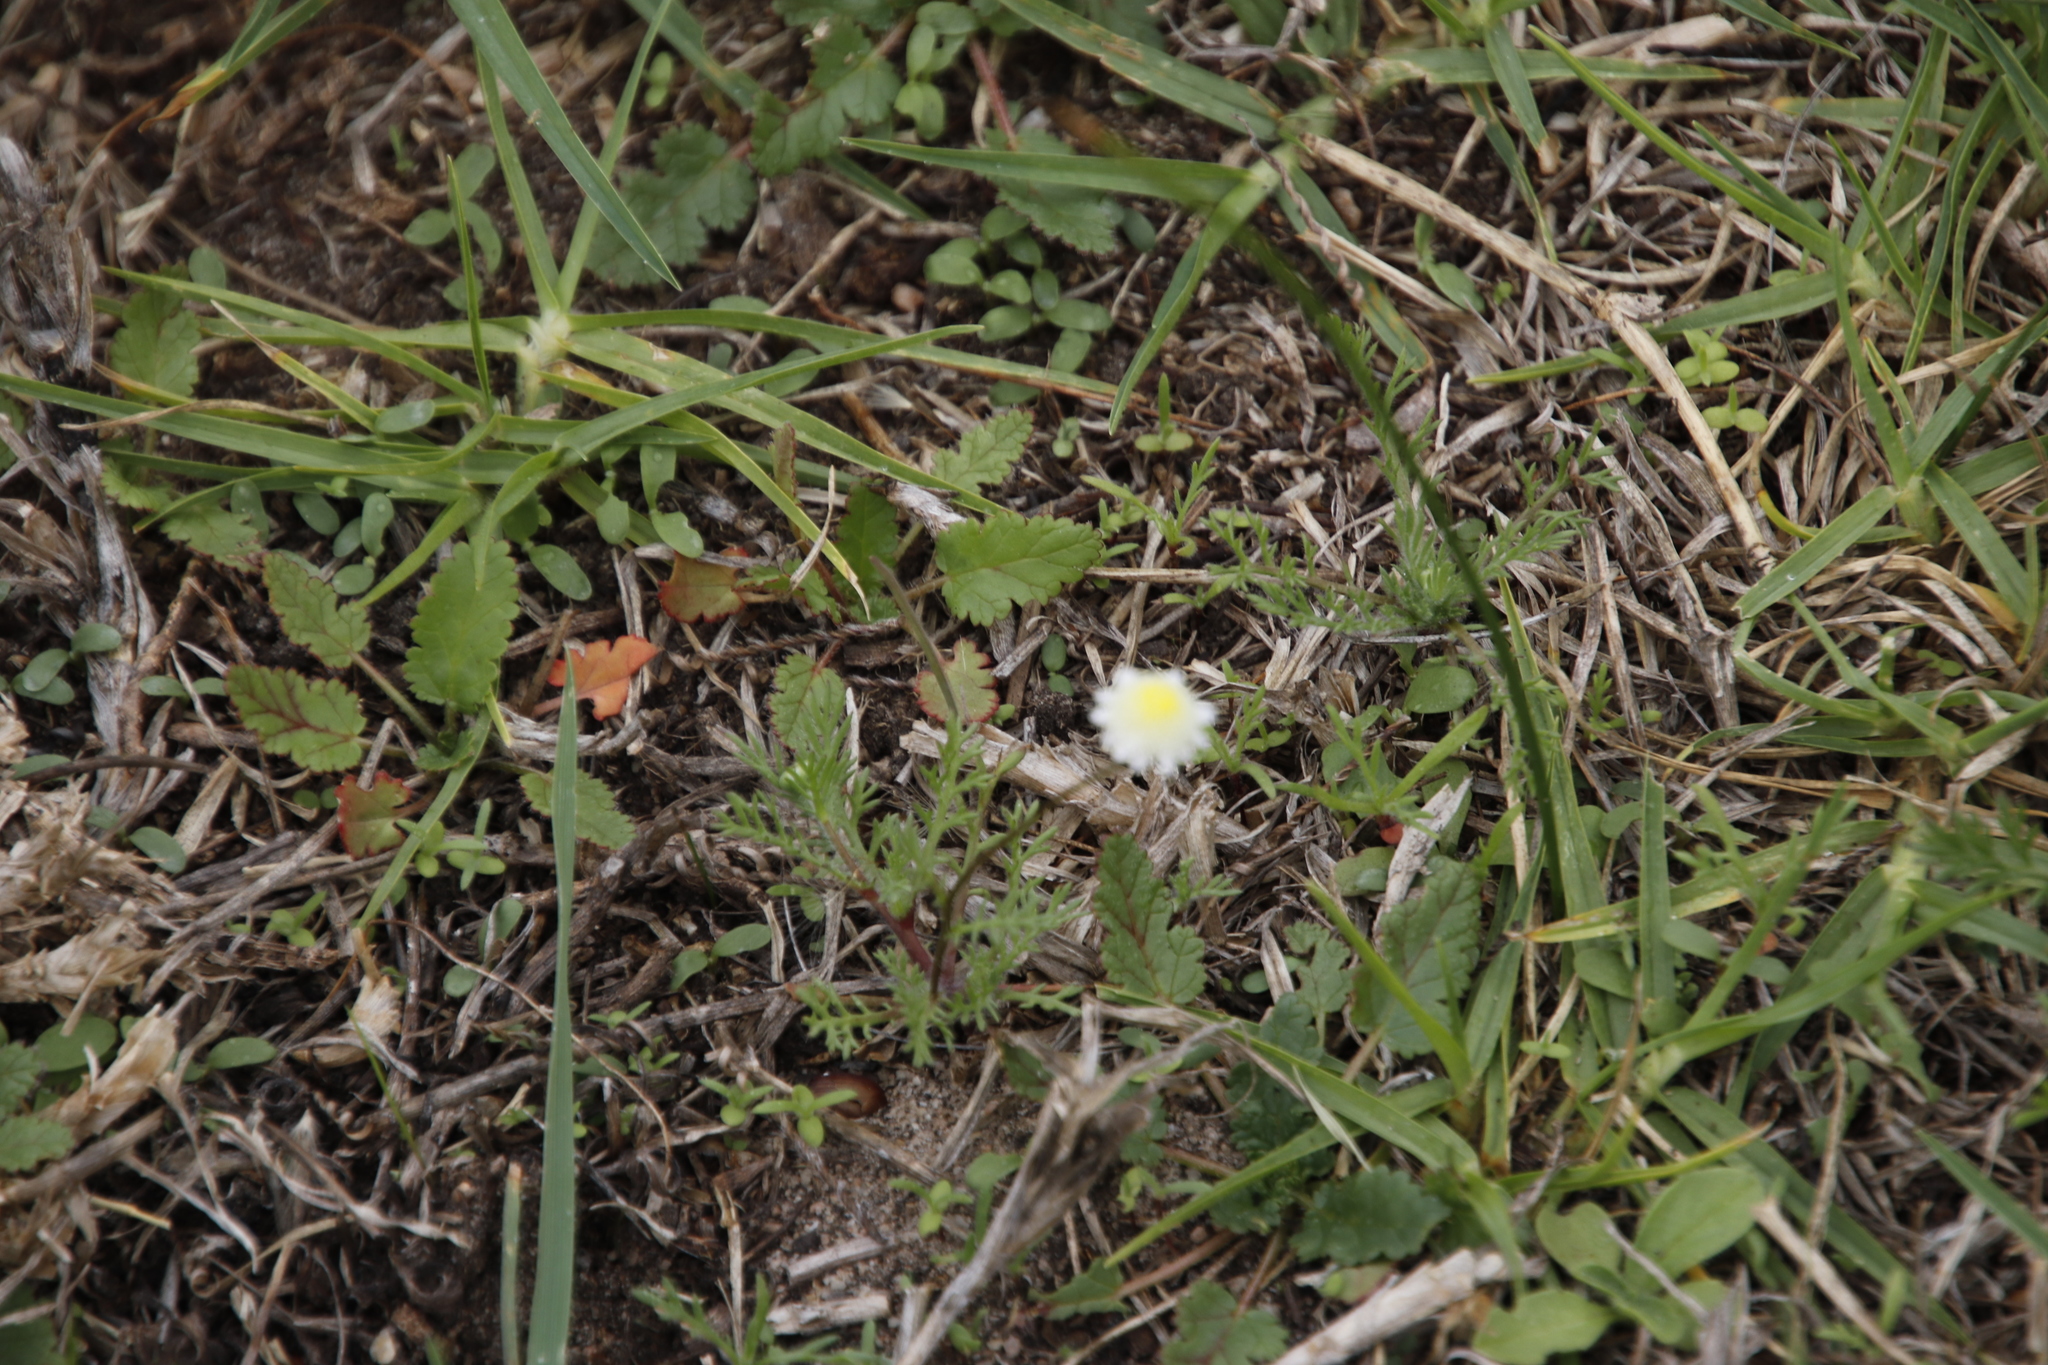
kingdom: Plantae
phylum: Tracheophyta
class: Magnoliopsida
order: Asterales
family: Asteraceae
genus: Cotula
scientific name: Cotula turbinata
